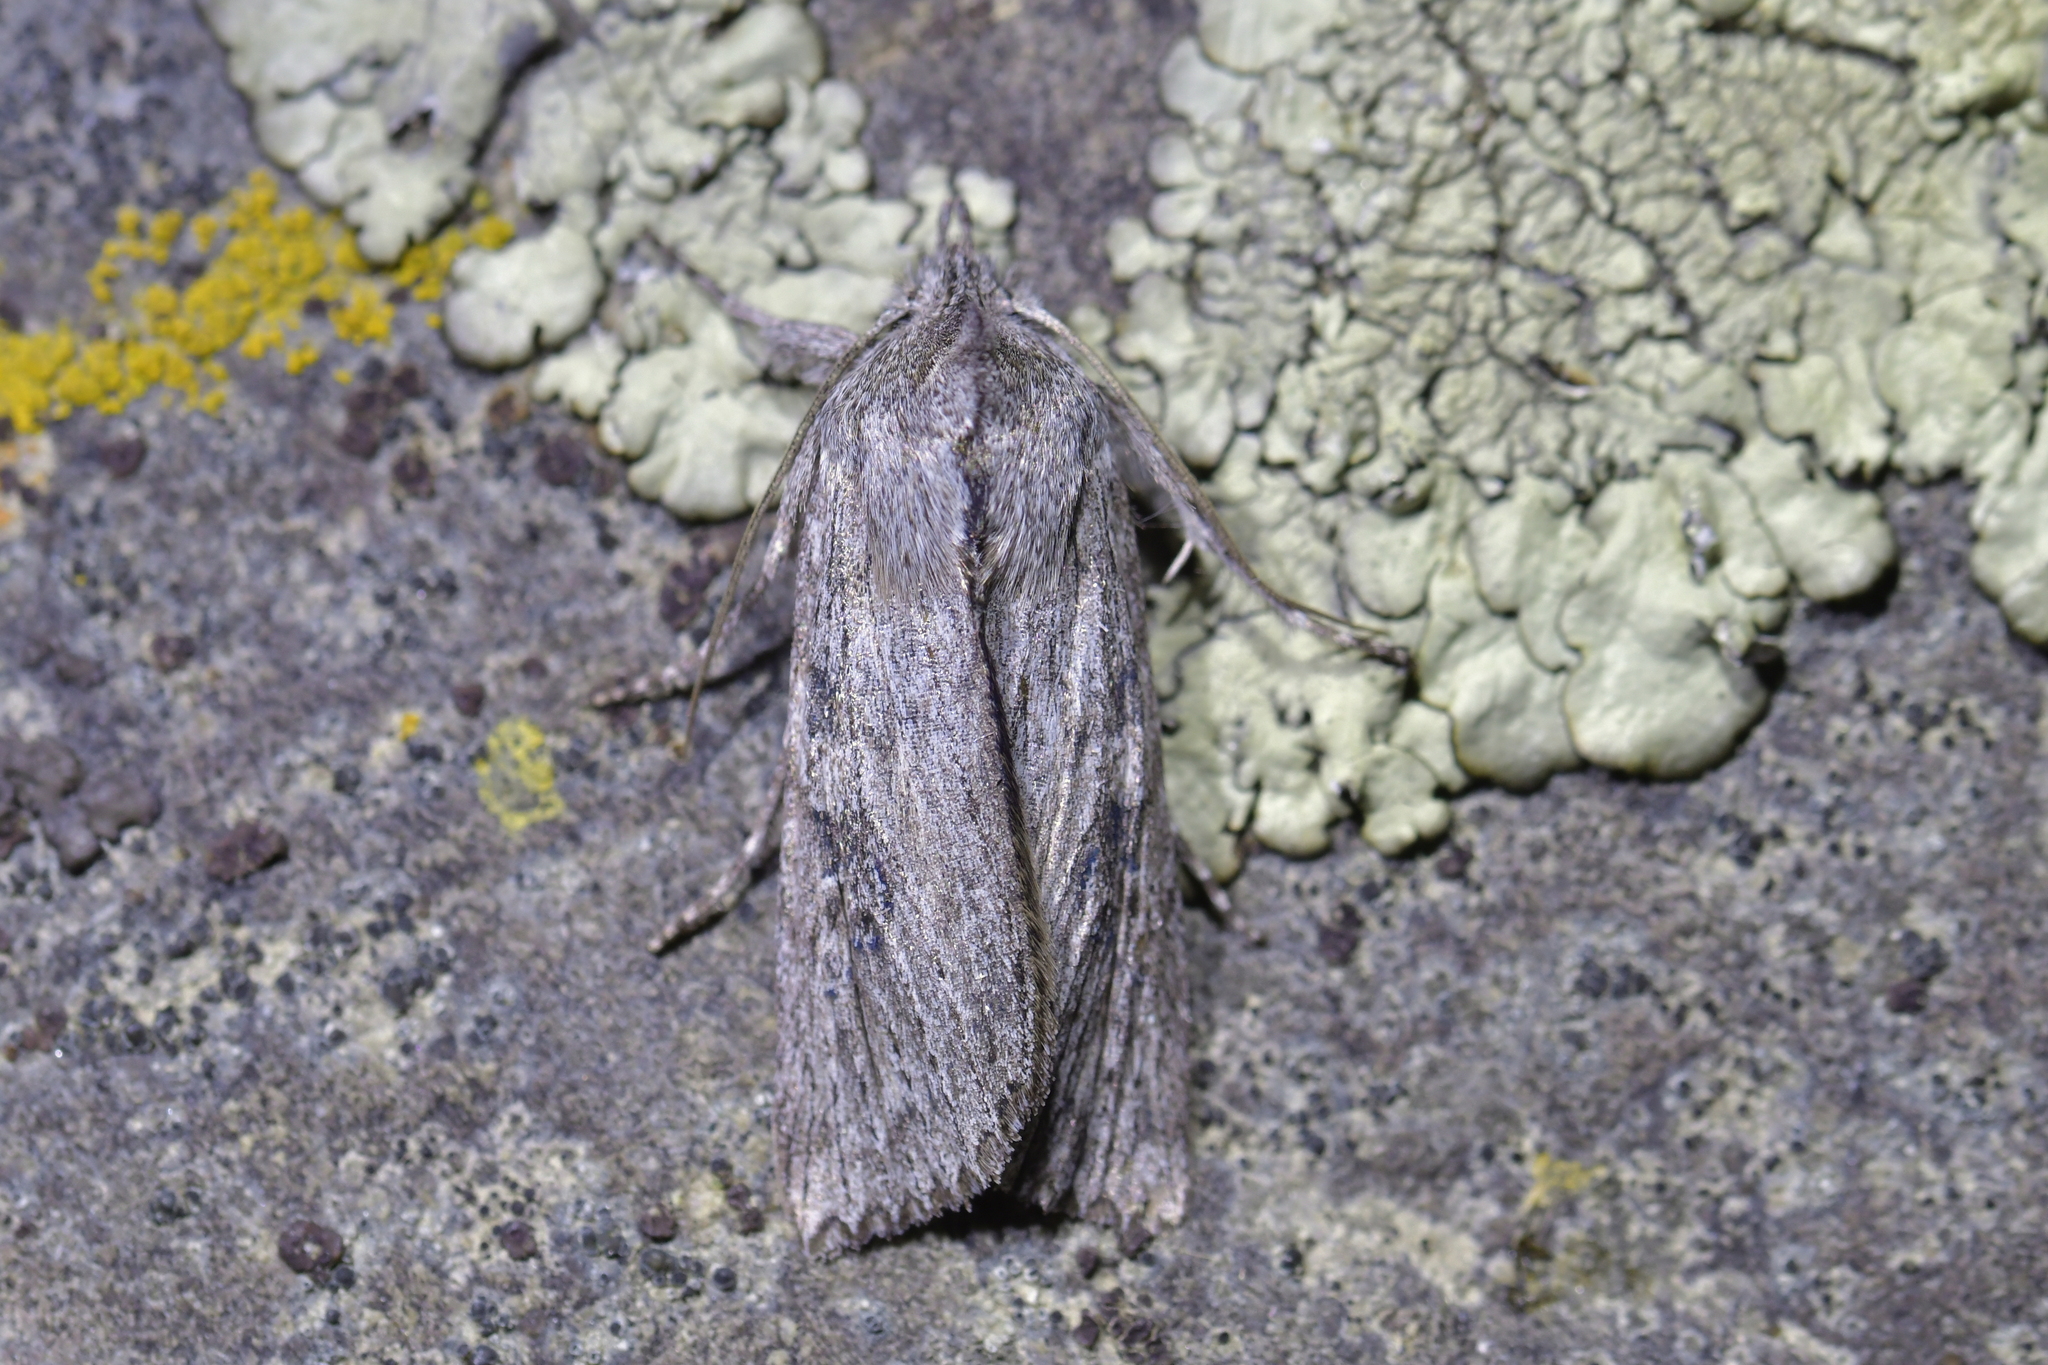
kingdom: Animalia
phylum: Arthropoda
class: Insecta
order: Lepidoptera
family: Noctuidae
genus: Physetica
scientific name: Physetica phricias
